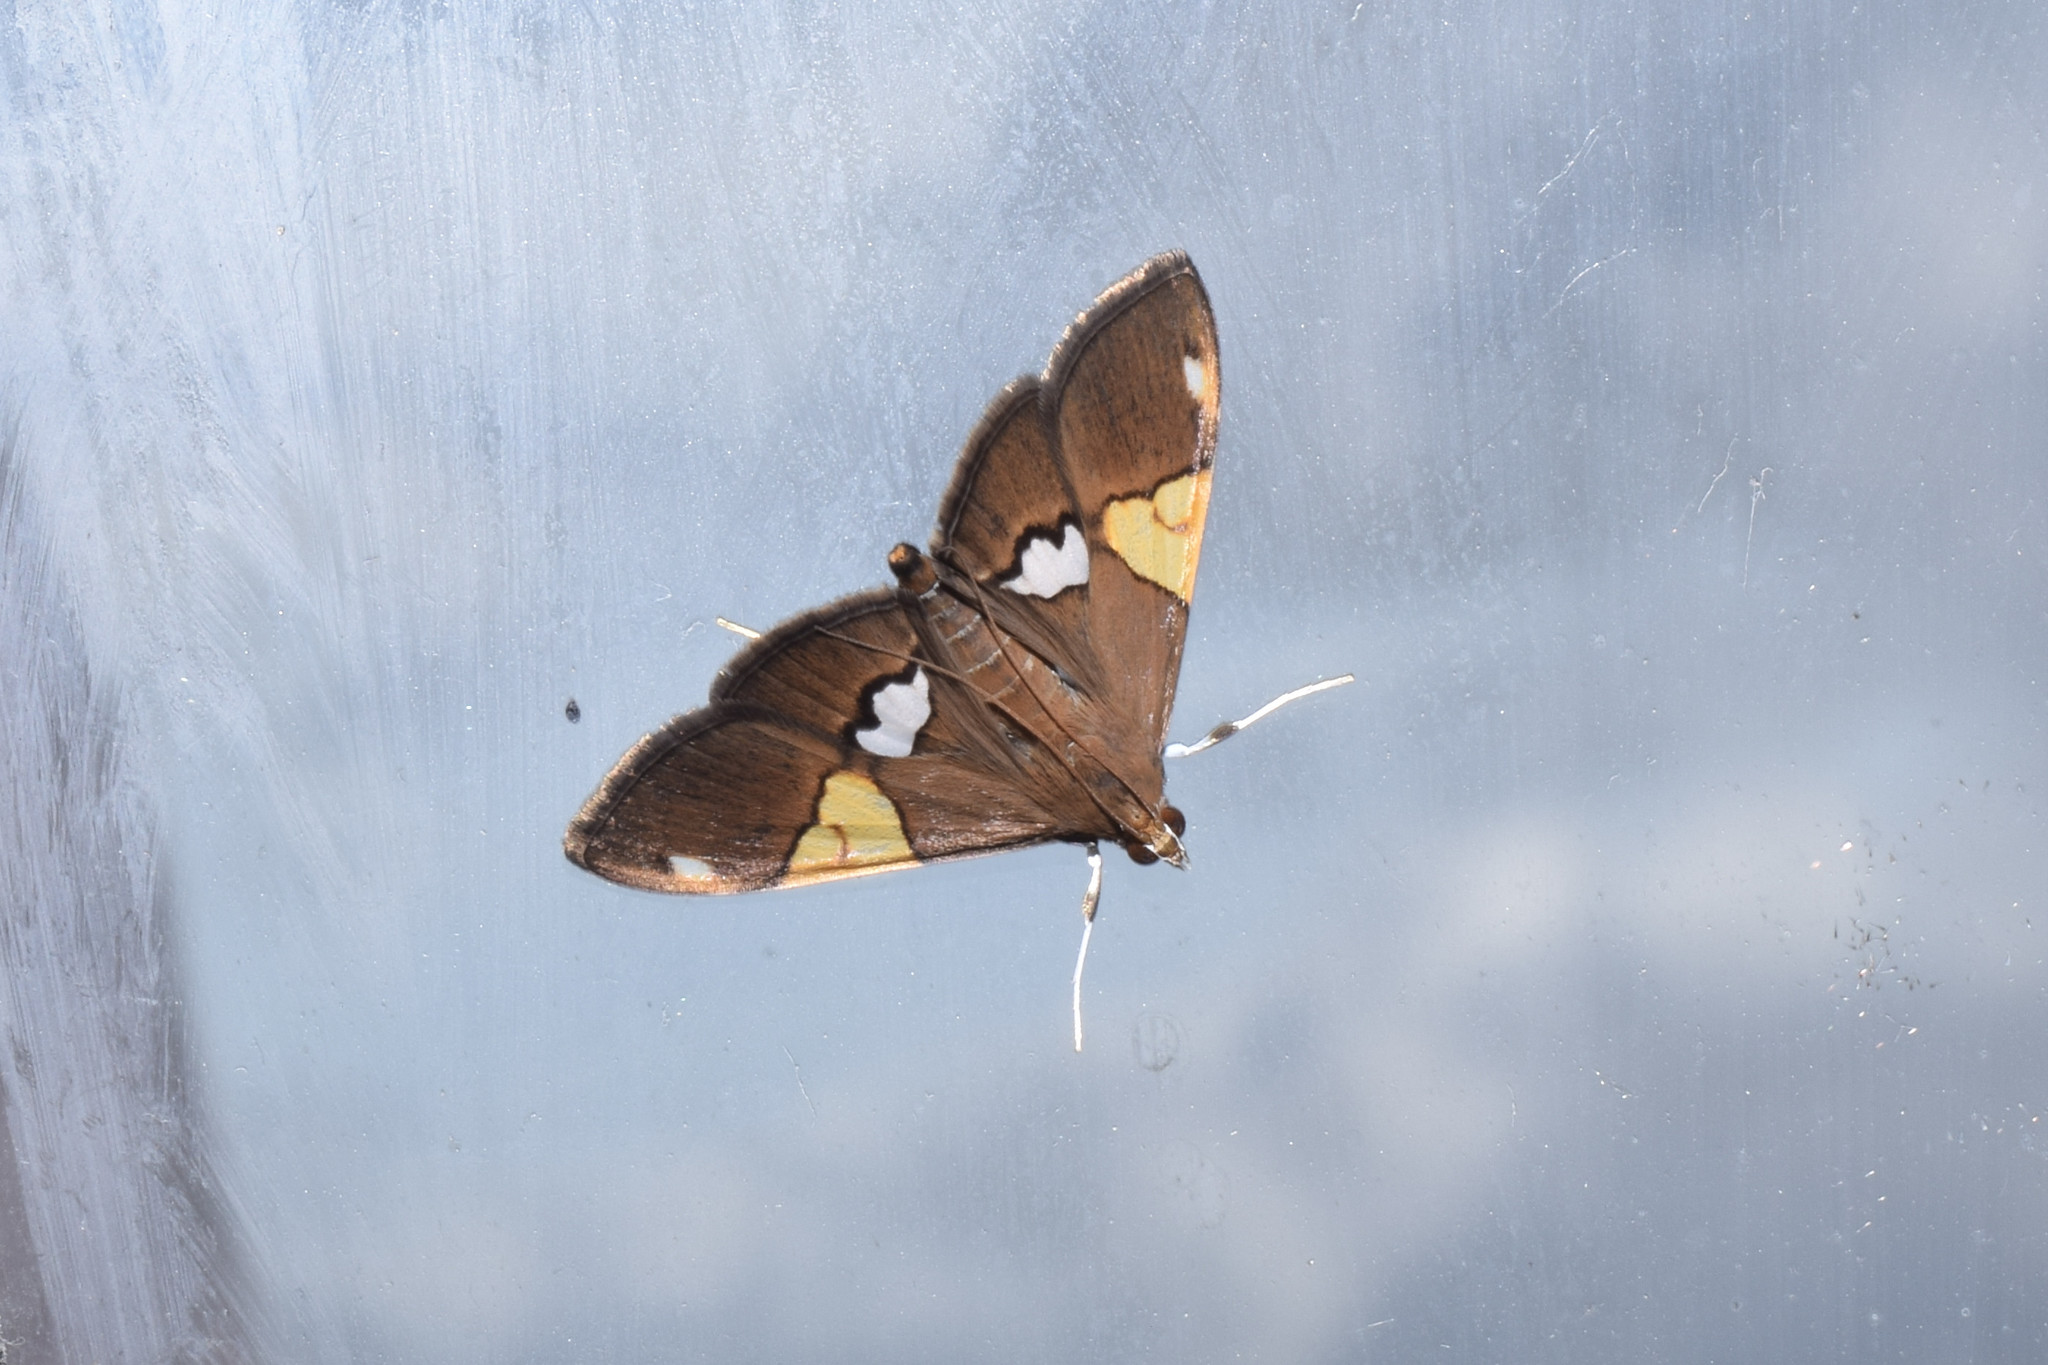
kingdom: Animalia
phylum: Arthropoda
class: Insecta
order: Lepidoptera
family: Crambidae
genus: Heterocnephes
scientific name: Heterocnephes lymphatalis
